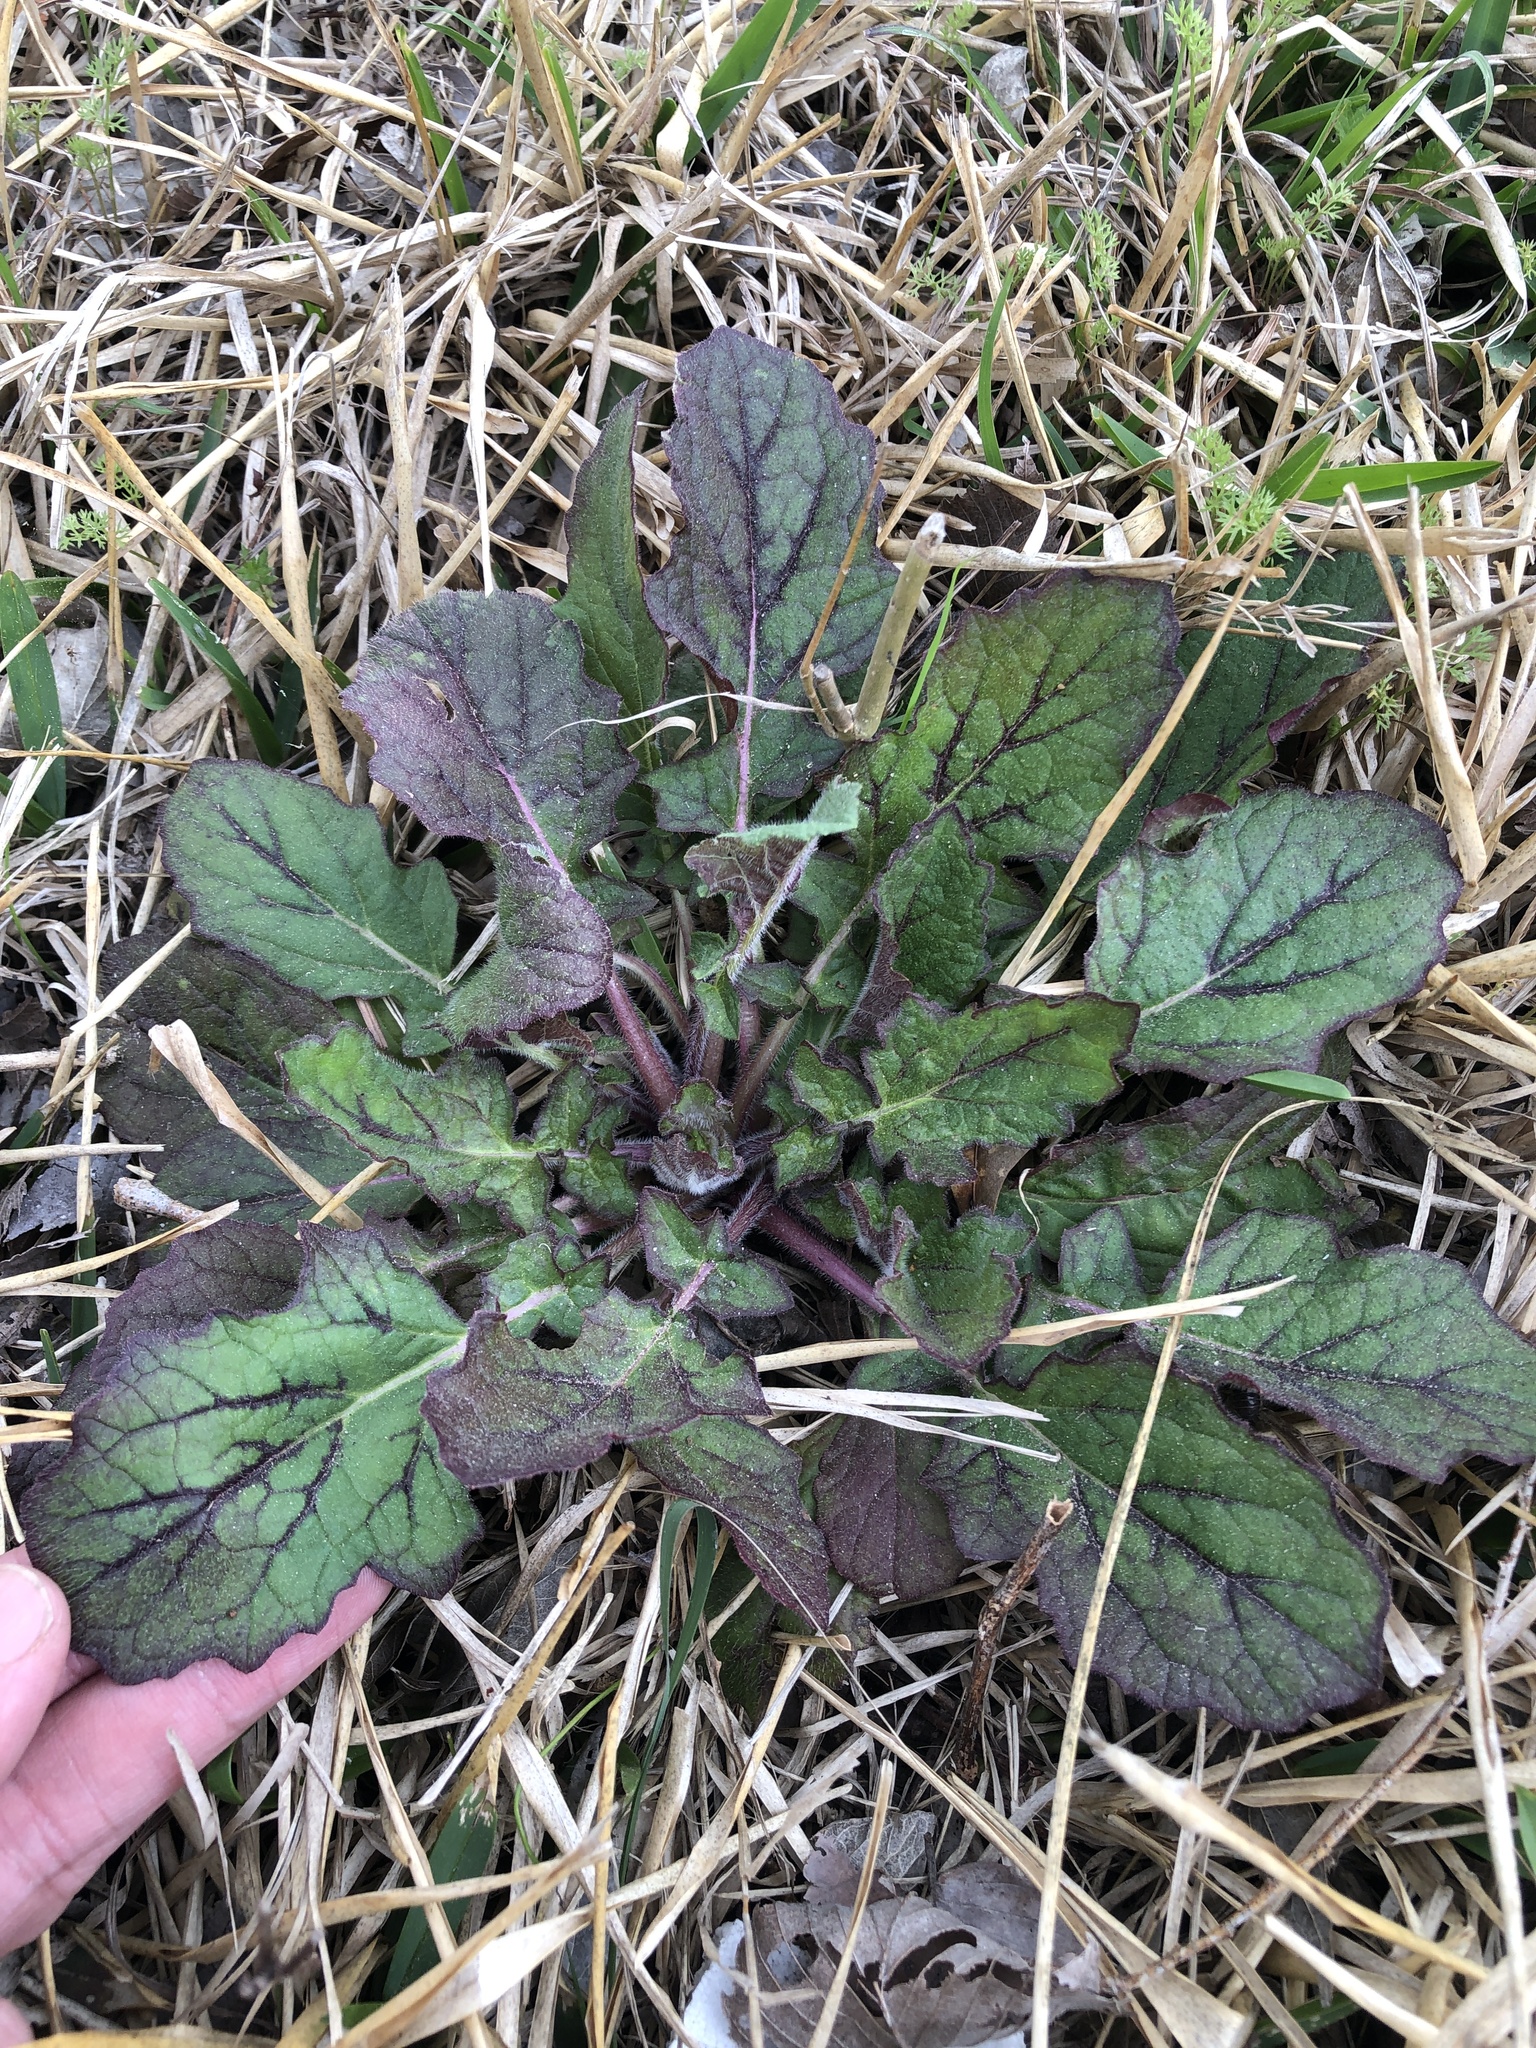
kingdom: Plantae
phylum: Tracheophyta
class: Magnoliopsida
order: Lamiales
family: Lamiaceae
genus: Salvia
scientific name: Salvia lyrata
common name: Cancerweed
